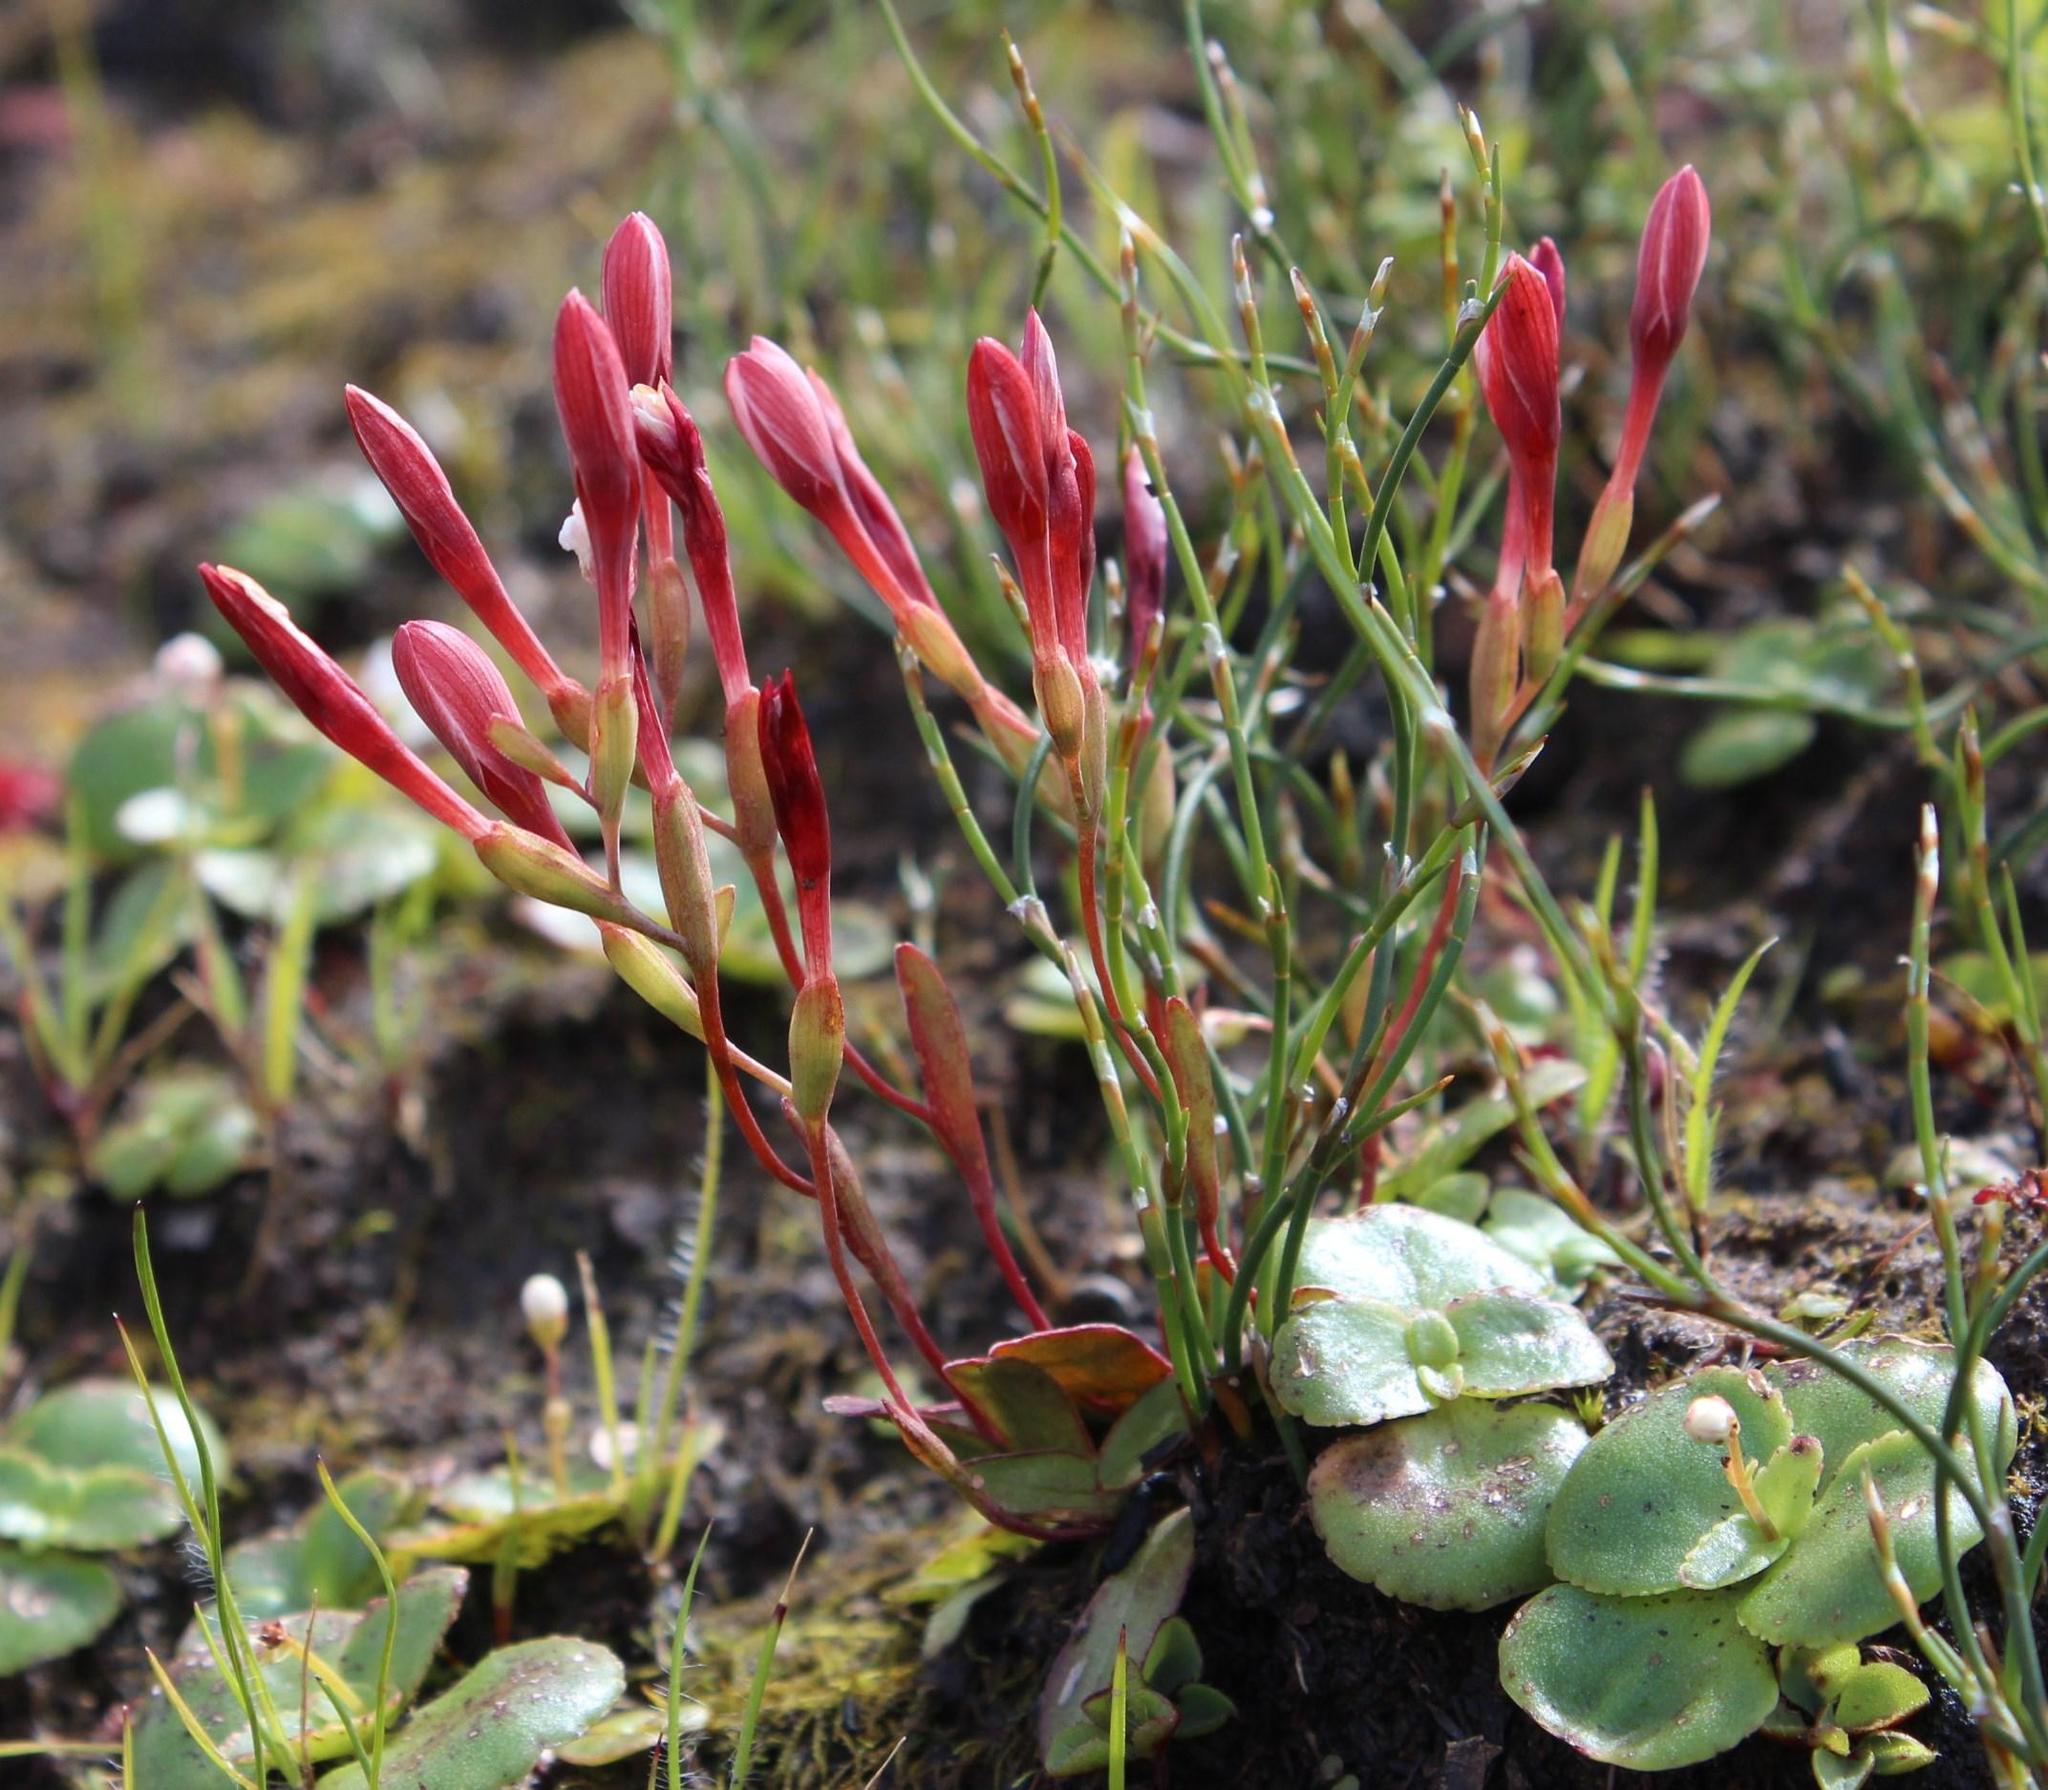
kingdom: Plantae
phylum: Tracheophyta
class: Liliopsida
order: Asparagales
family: Iridaceae
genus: Geissorhiza
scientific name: Geissorhiza ovata
